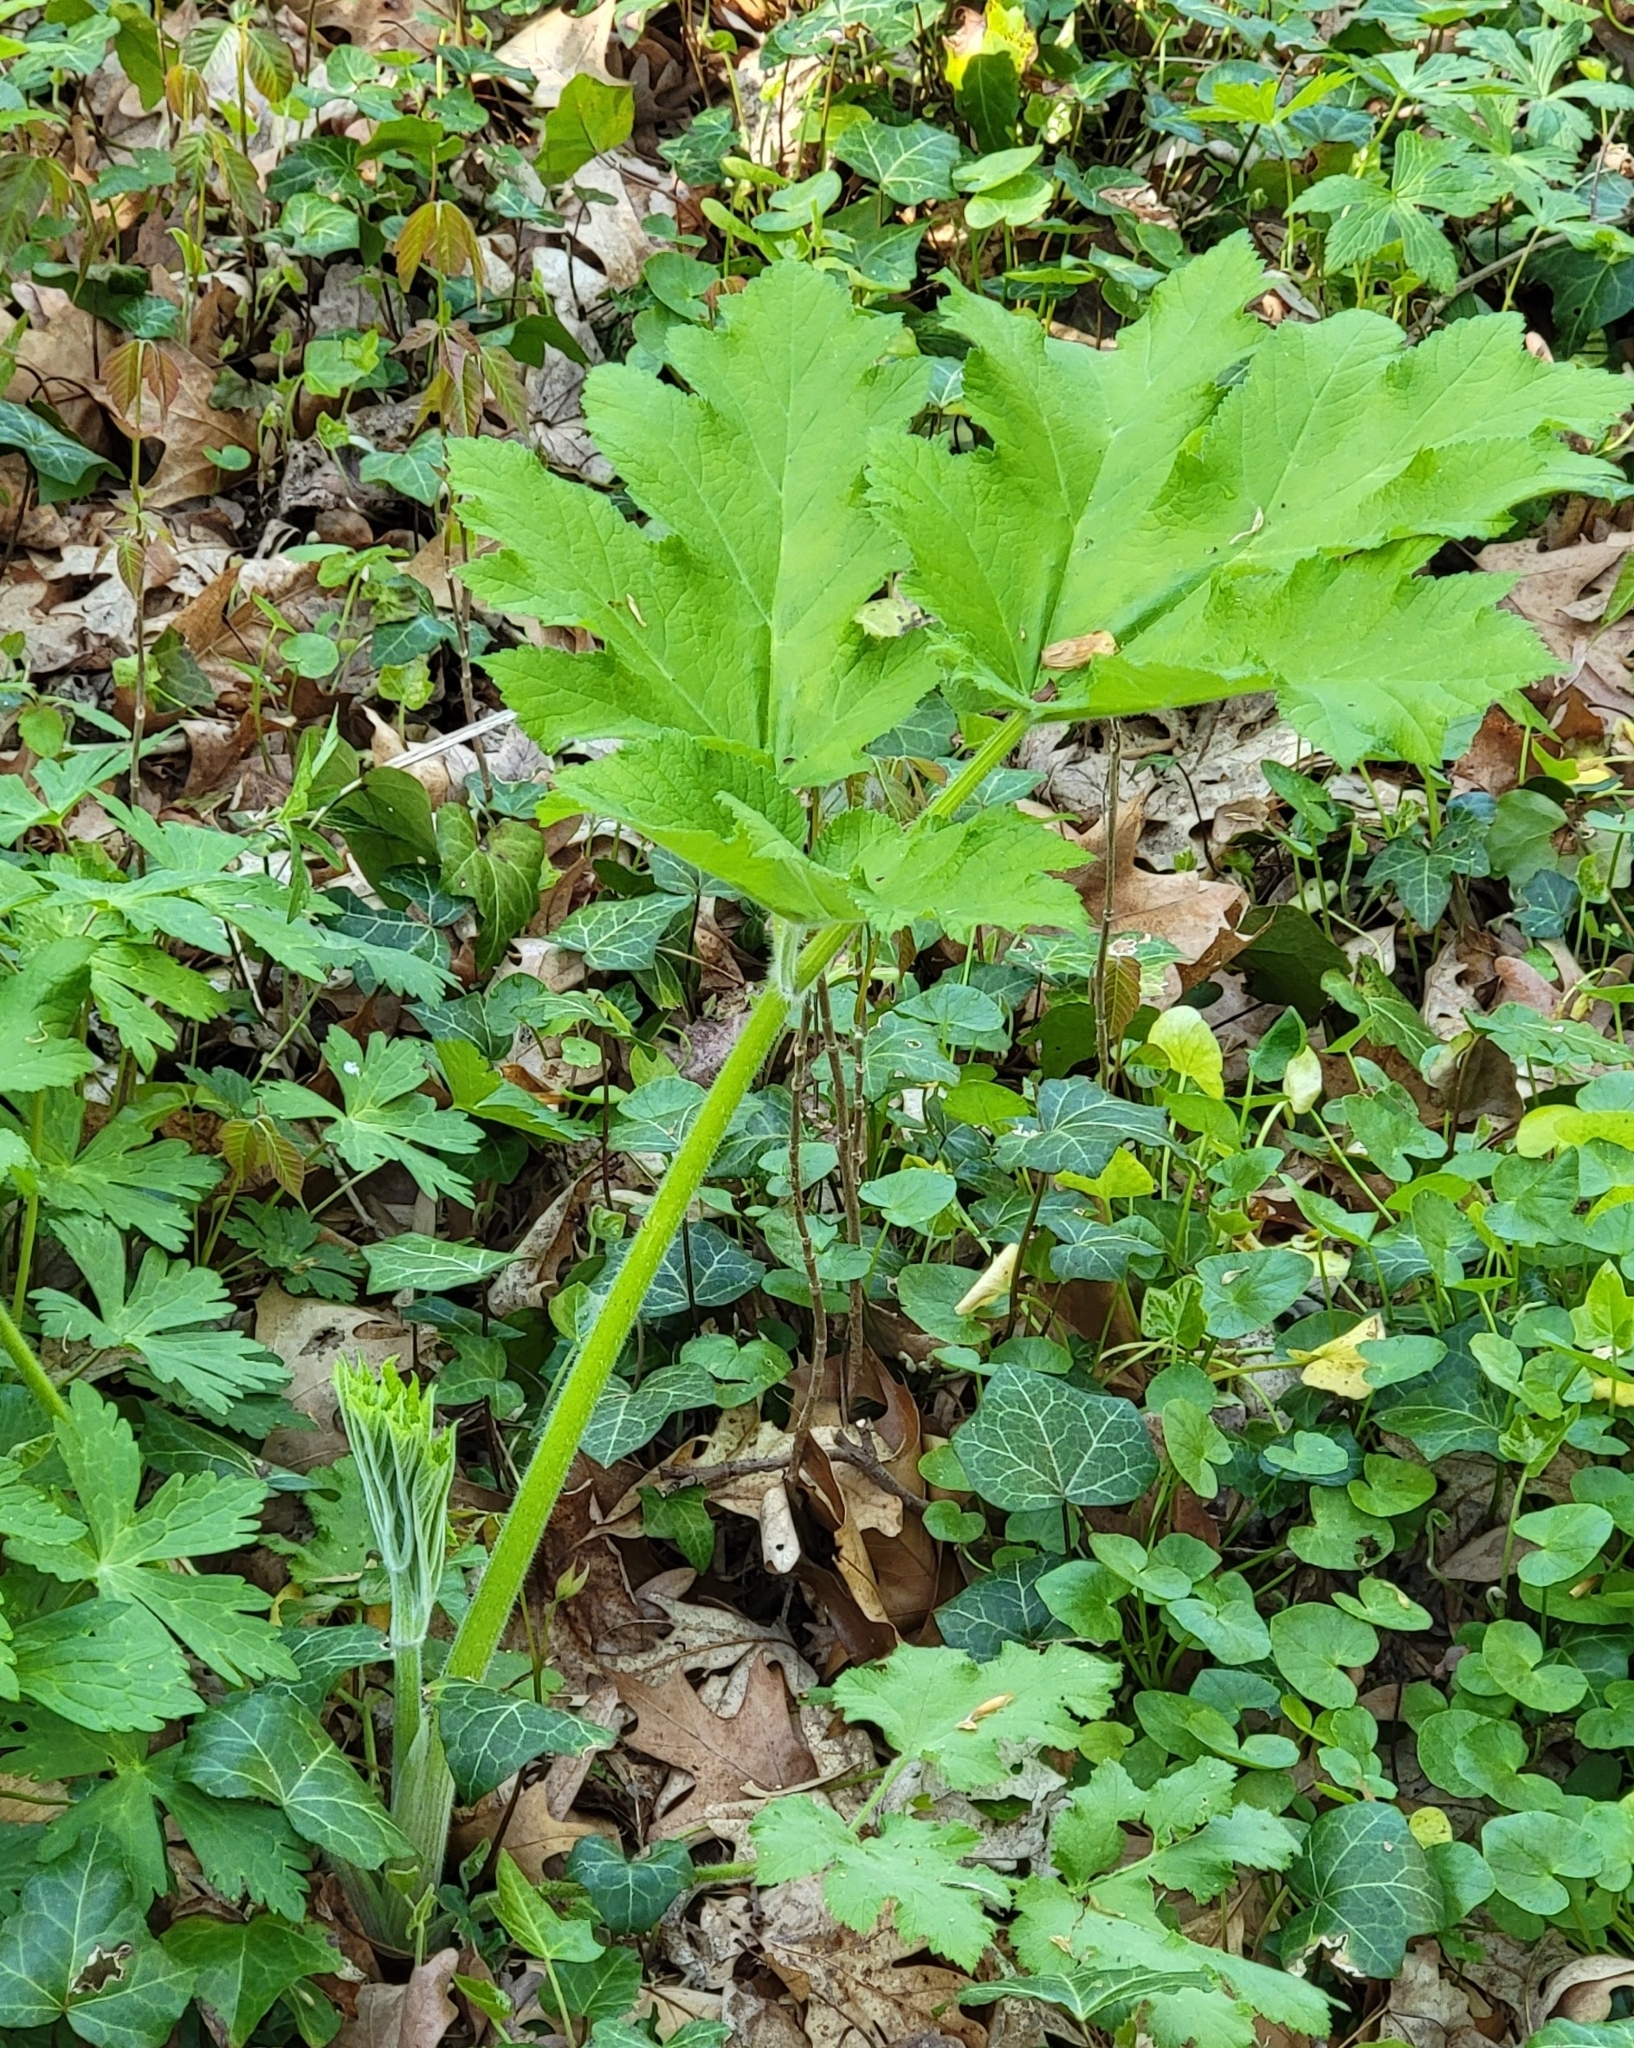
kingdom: Plantae
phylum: Tracheophyta
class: Magnoliopsida
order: Apiales
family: Apiaceae
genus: Heracleum
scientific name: Heracleum maximum
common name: American cow parsnip
